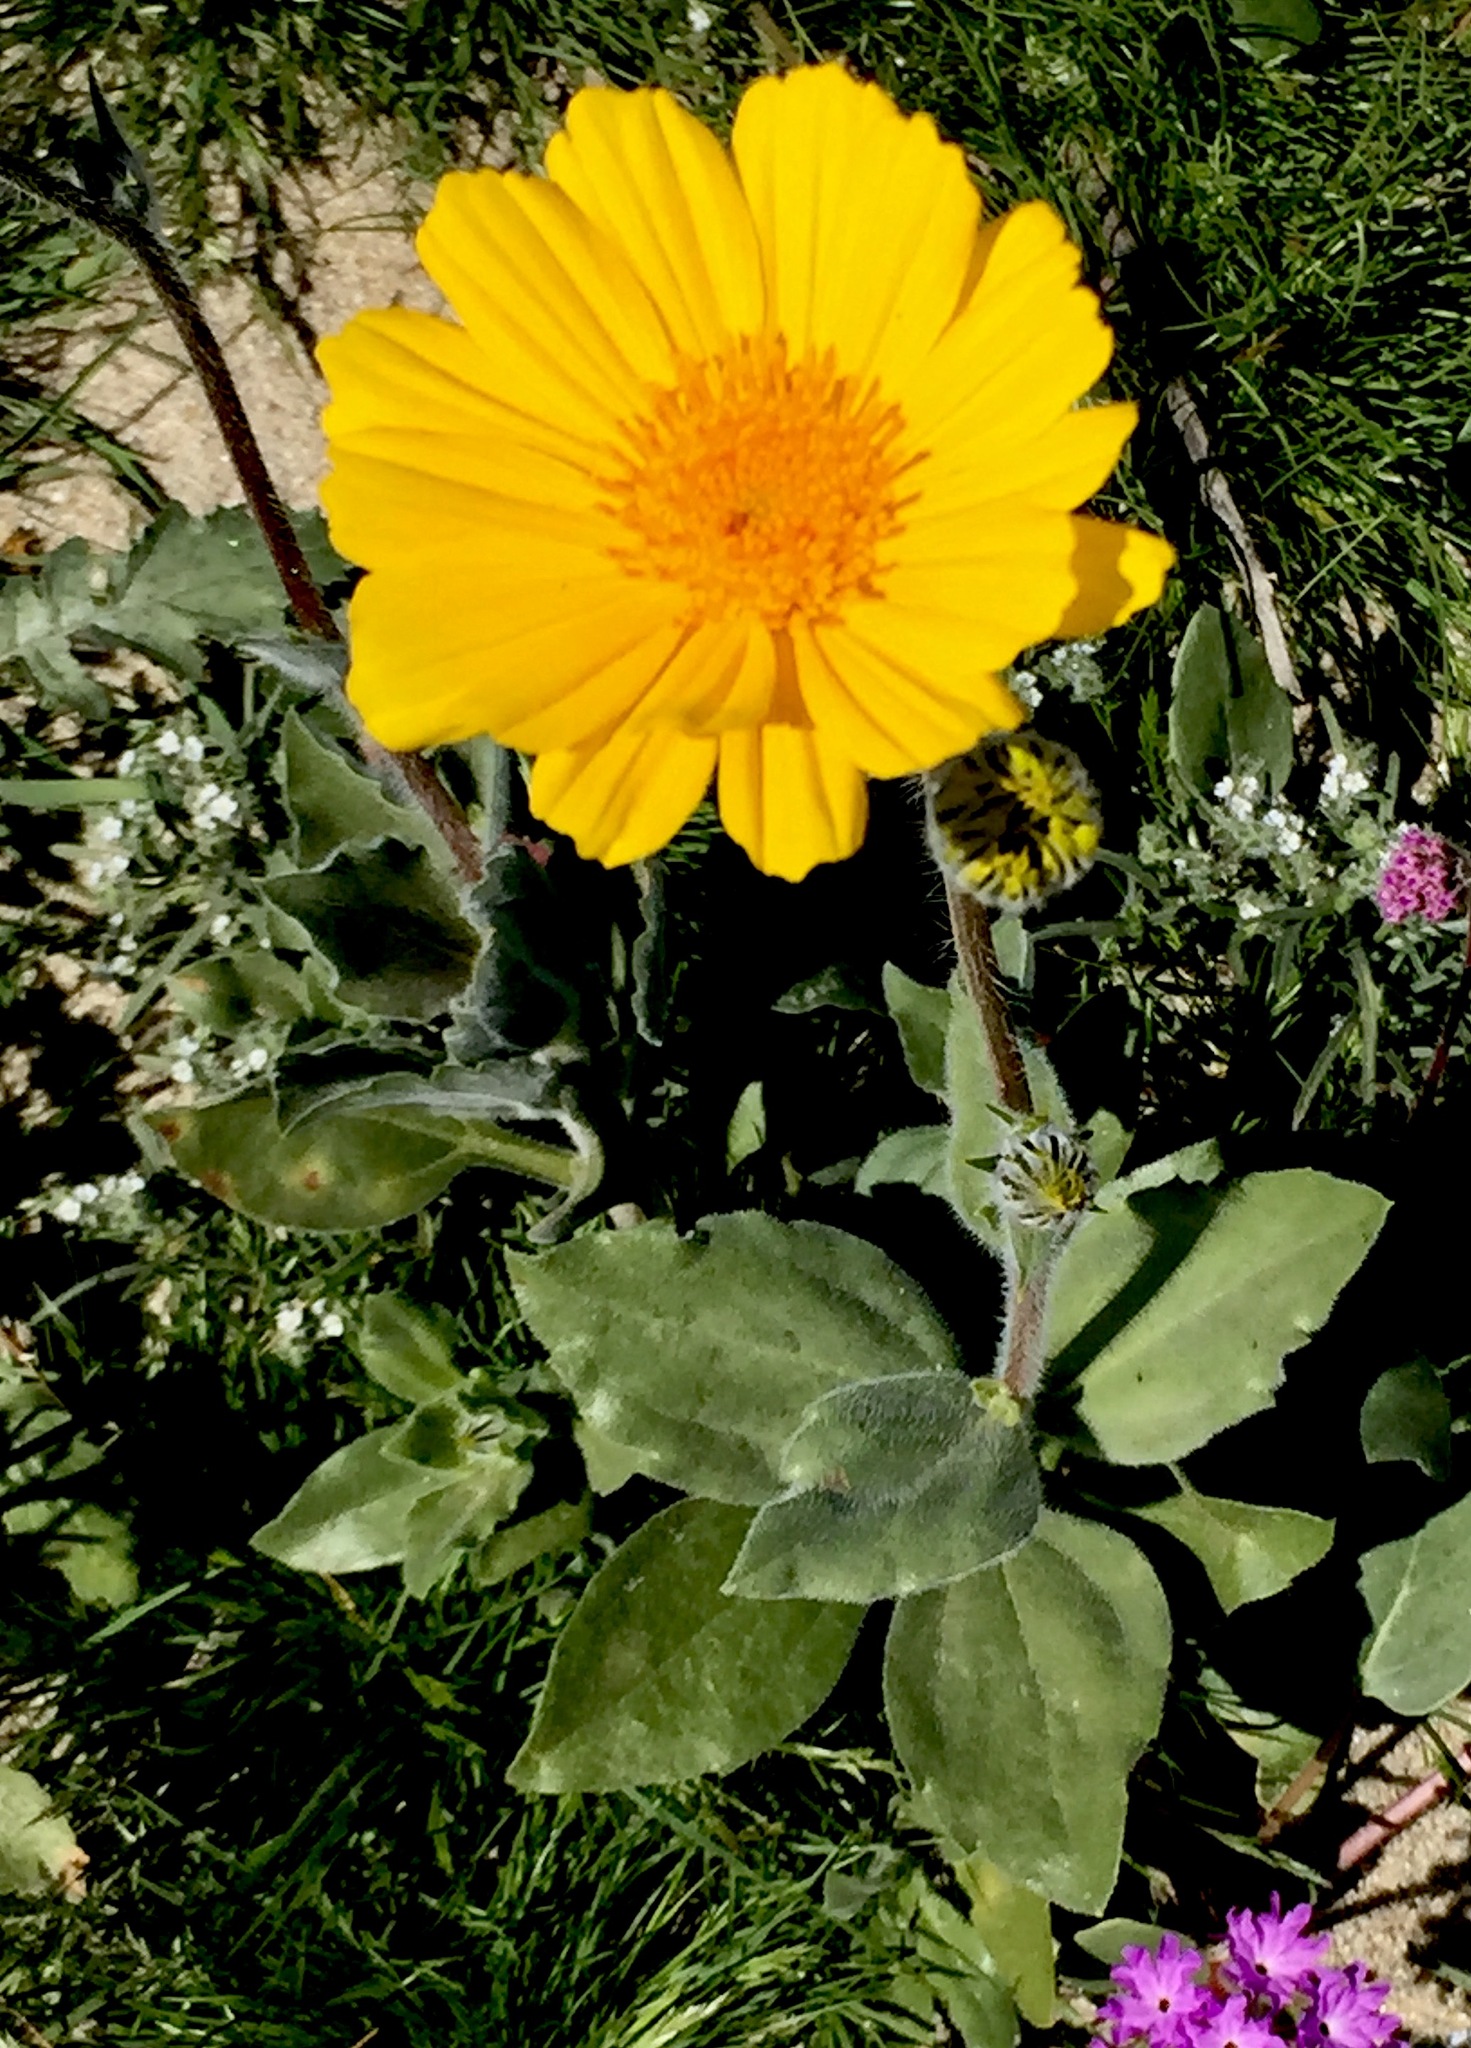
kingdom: Plantae
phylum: Tracheophyta
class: Magnoliopsida
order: Asterales
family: Asteraceae
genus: Geraea
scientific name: Geraea canescens
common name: Desert-gold
